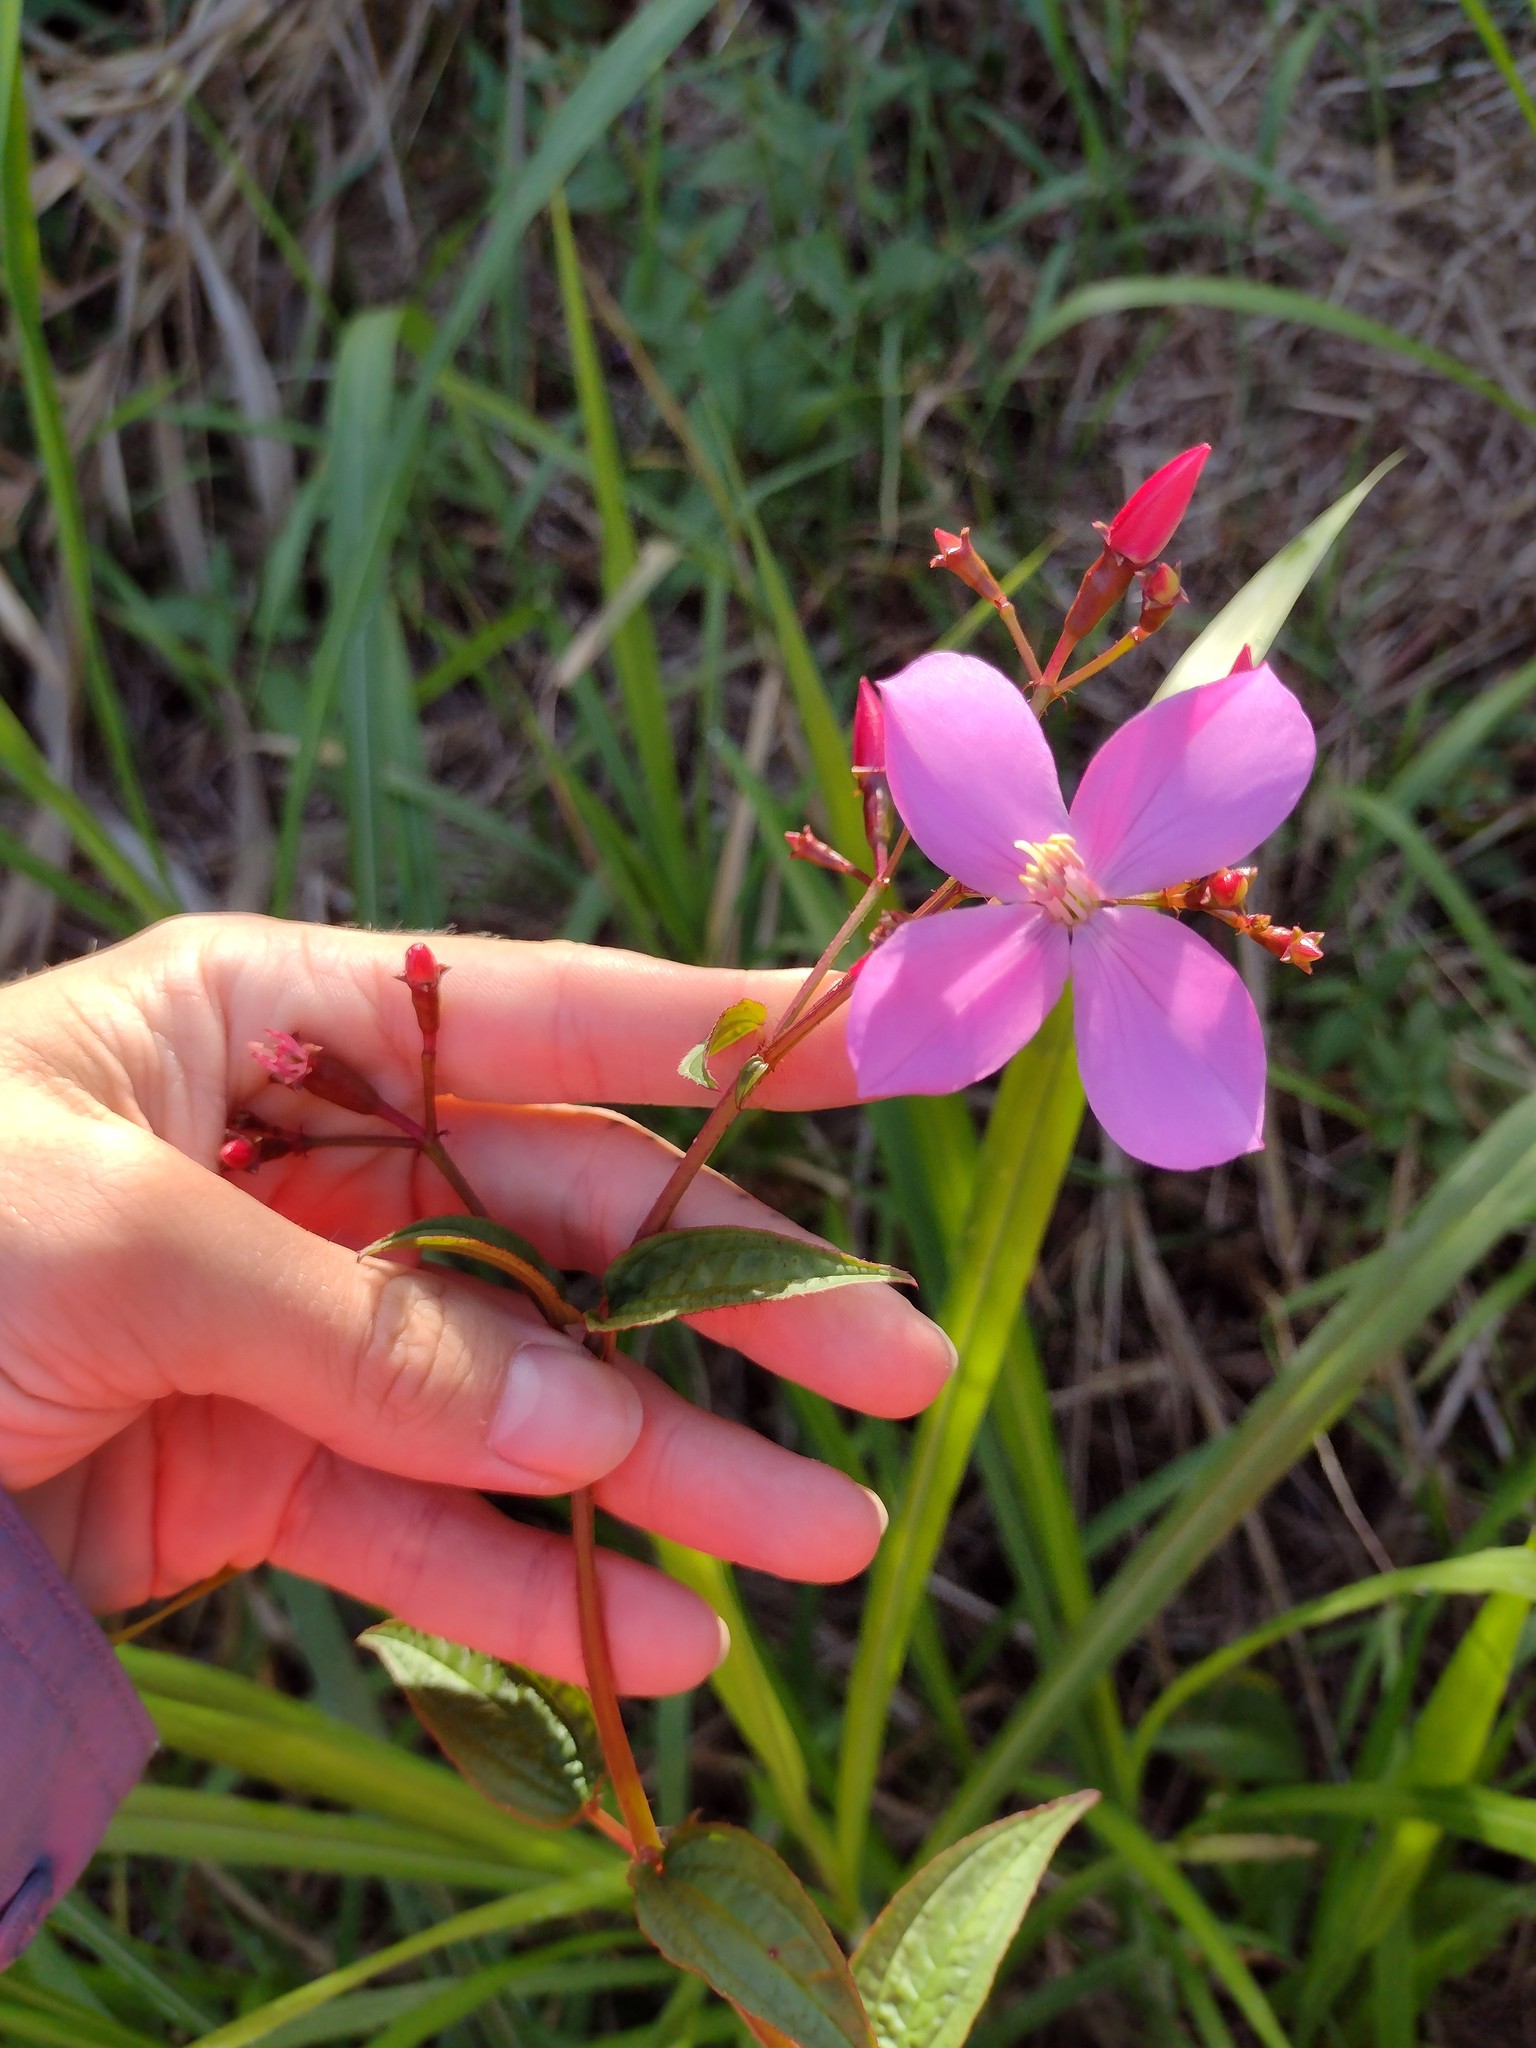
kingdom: Plantae
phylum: Tracheophyta
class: Magnoliopsida
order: Myrtales
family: Melastomataceae
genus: Arthrostemma
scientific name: Arthrostemma ciliatum
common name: Everblooming eavender
